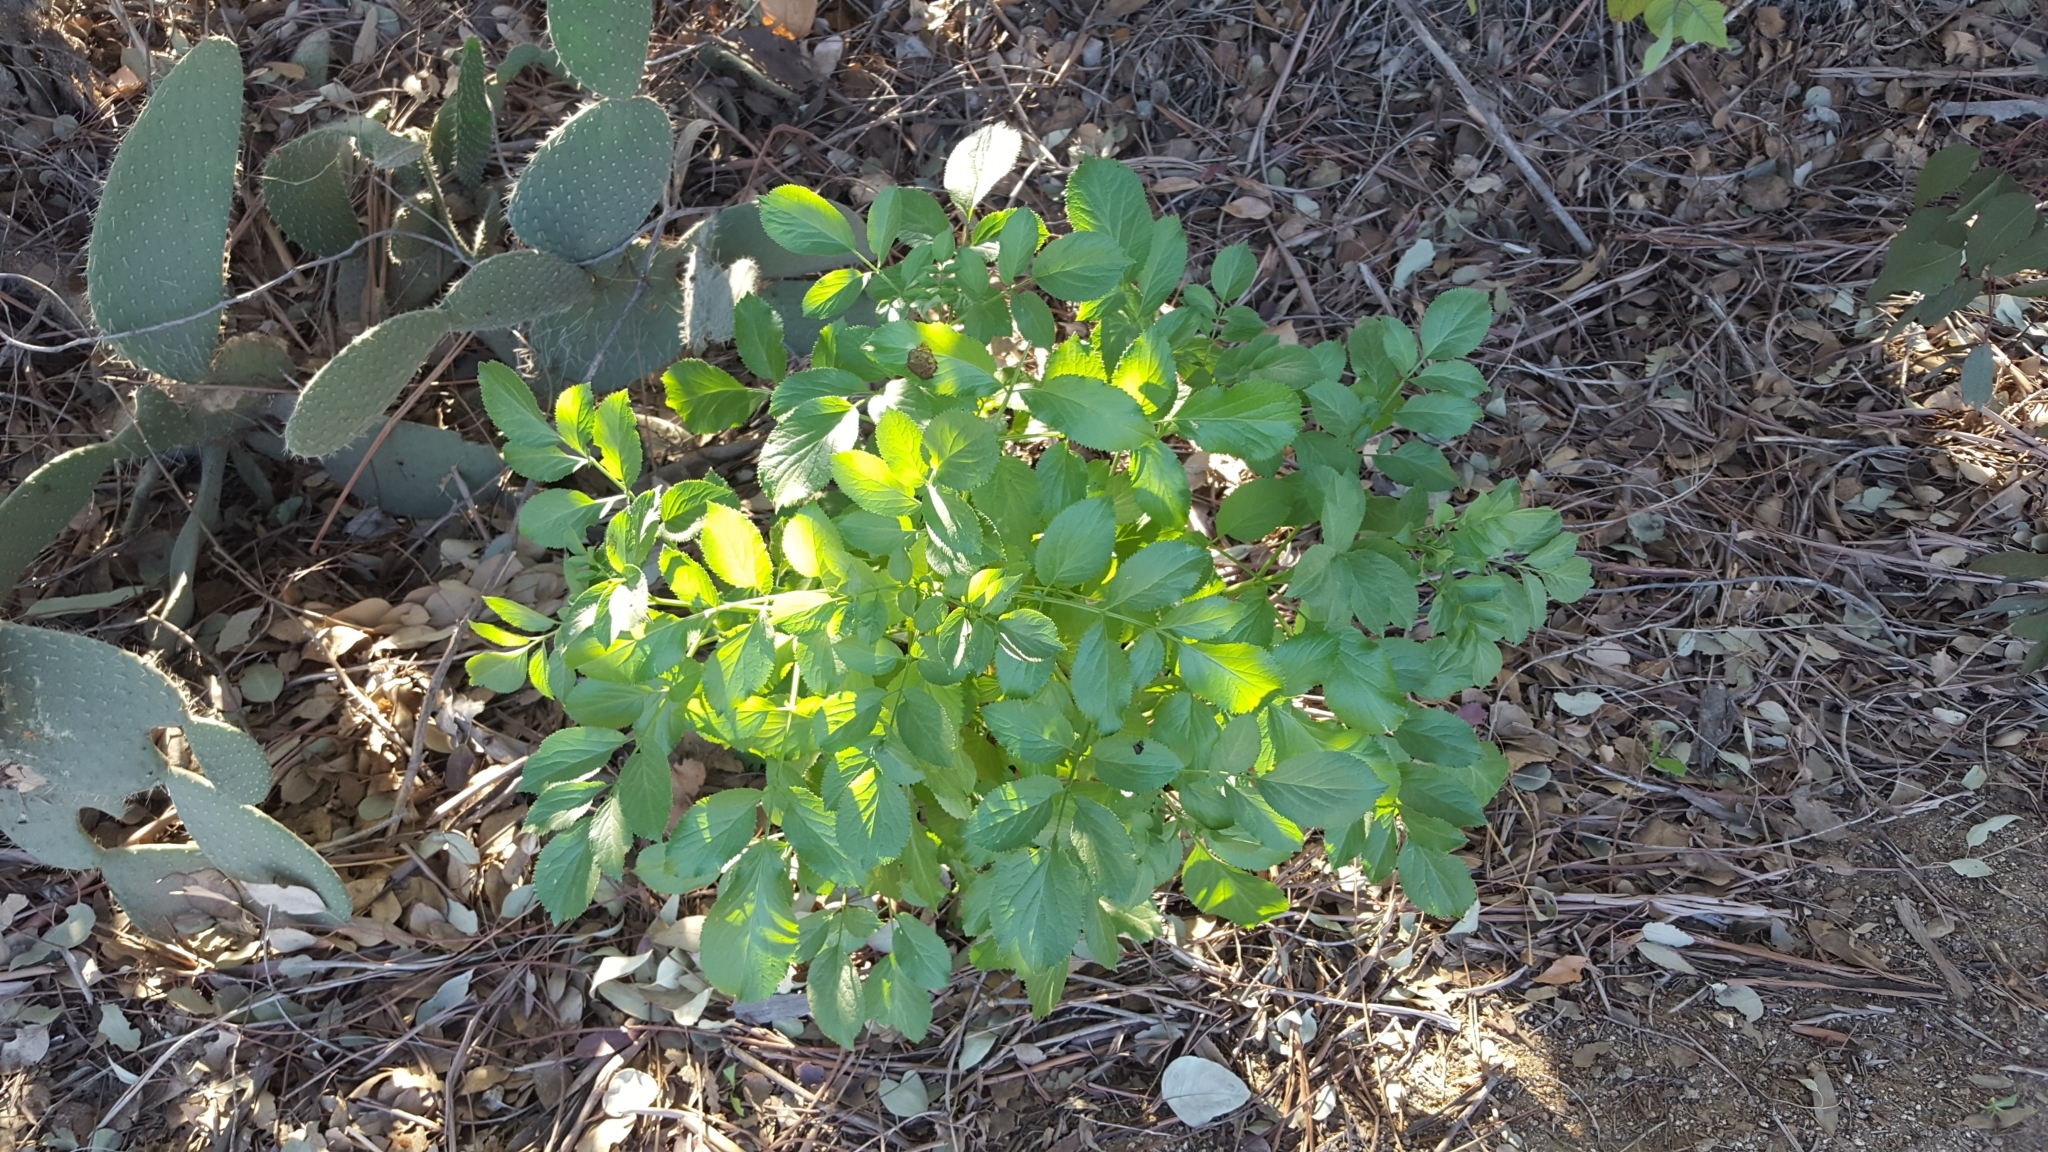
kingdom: Plantae
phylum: Tracheophyta
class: Magnoliopsida
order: Dipsacales
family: Viburnaceae
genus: Sambucus
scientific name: Sambucus cerulea
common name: Blue elder
